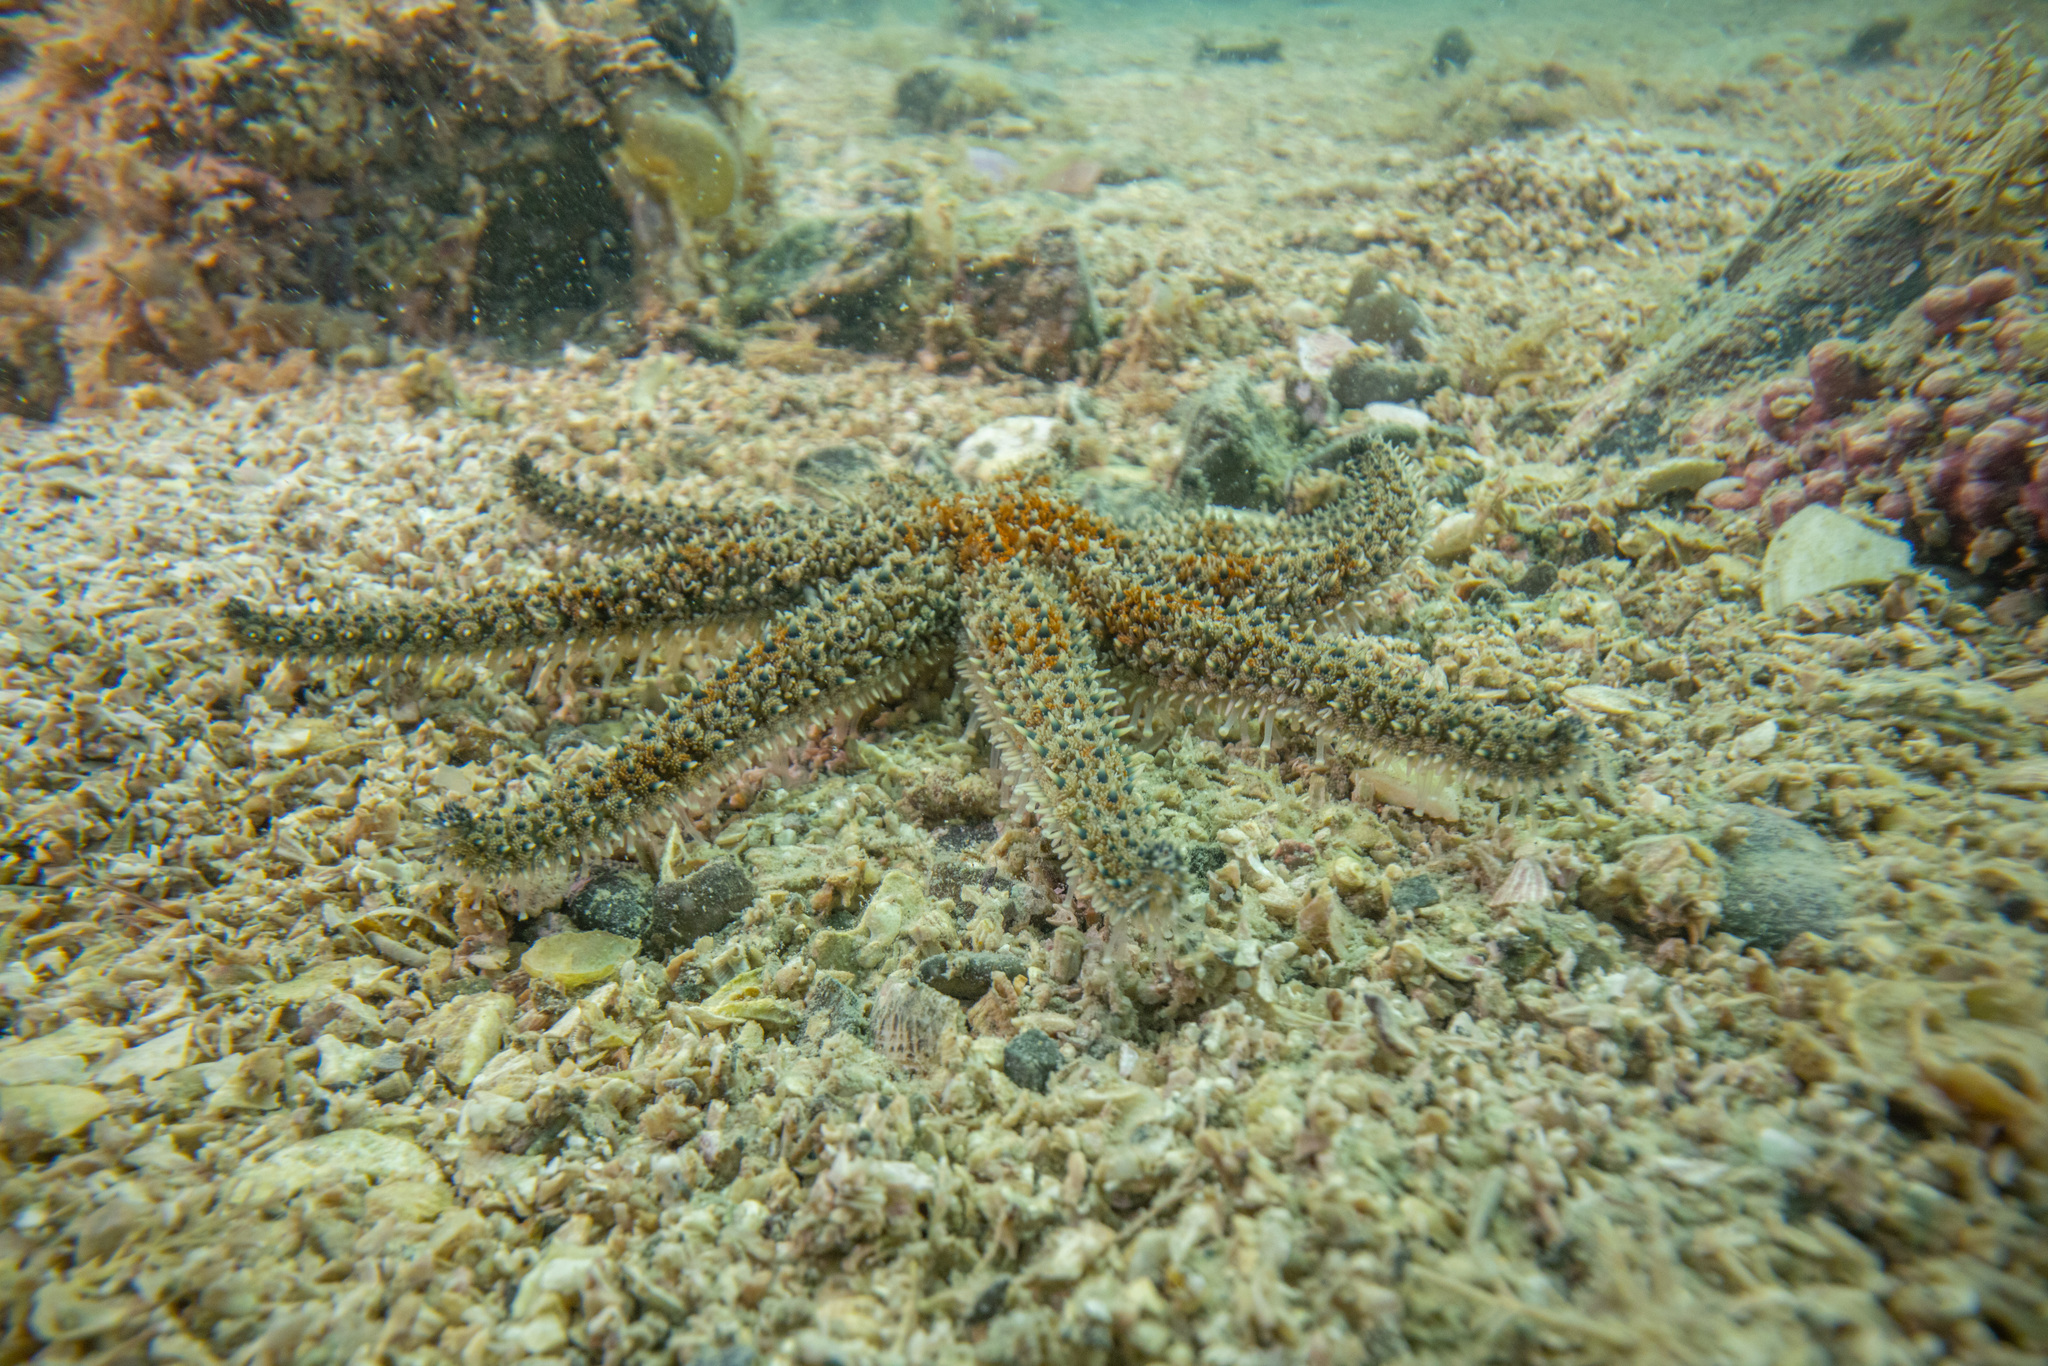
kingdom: Animalia
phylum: Echinodermata
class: Asteroidea
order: Forcipulatida
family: Asteriidae
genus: Coscinasterias
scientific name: Coscinasterias muricata
